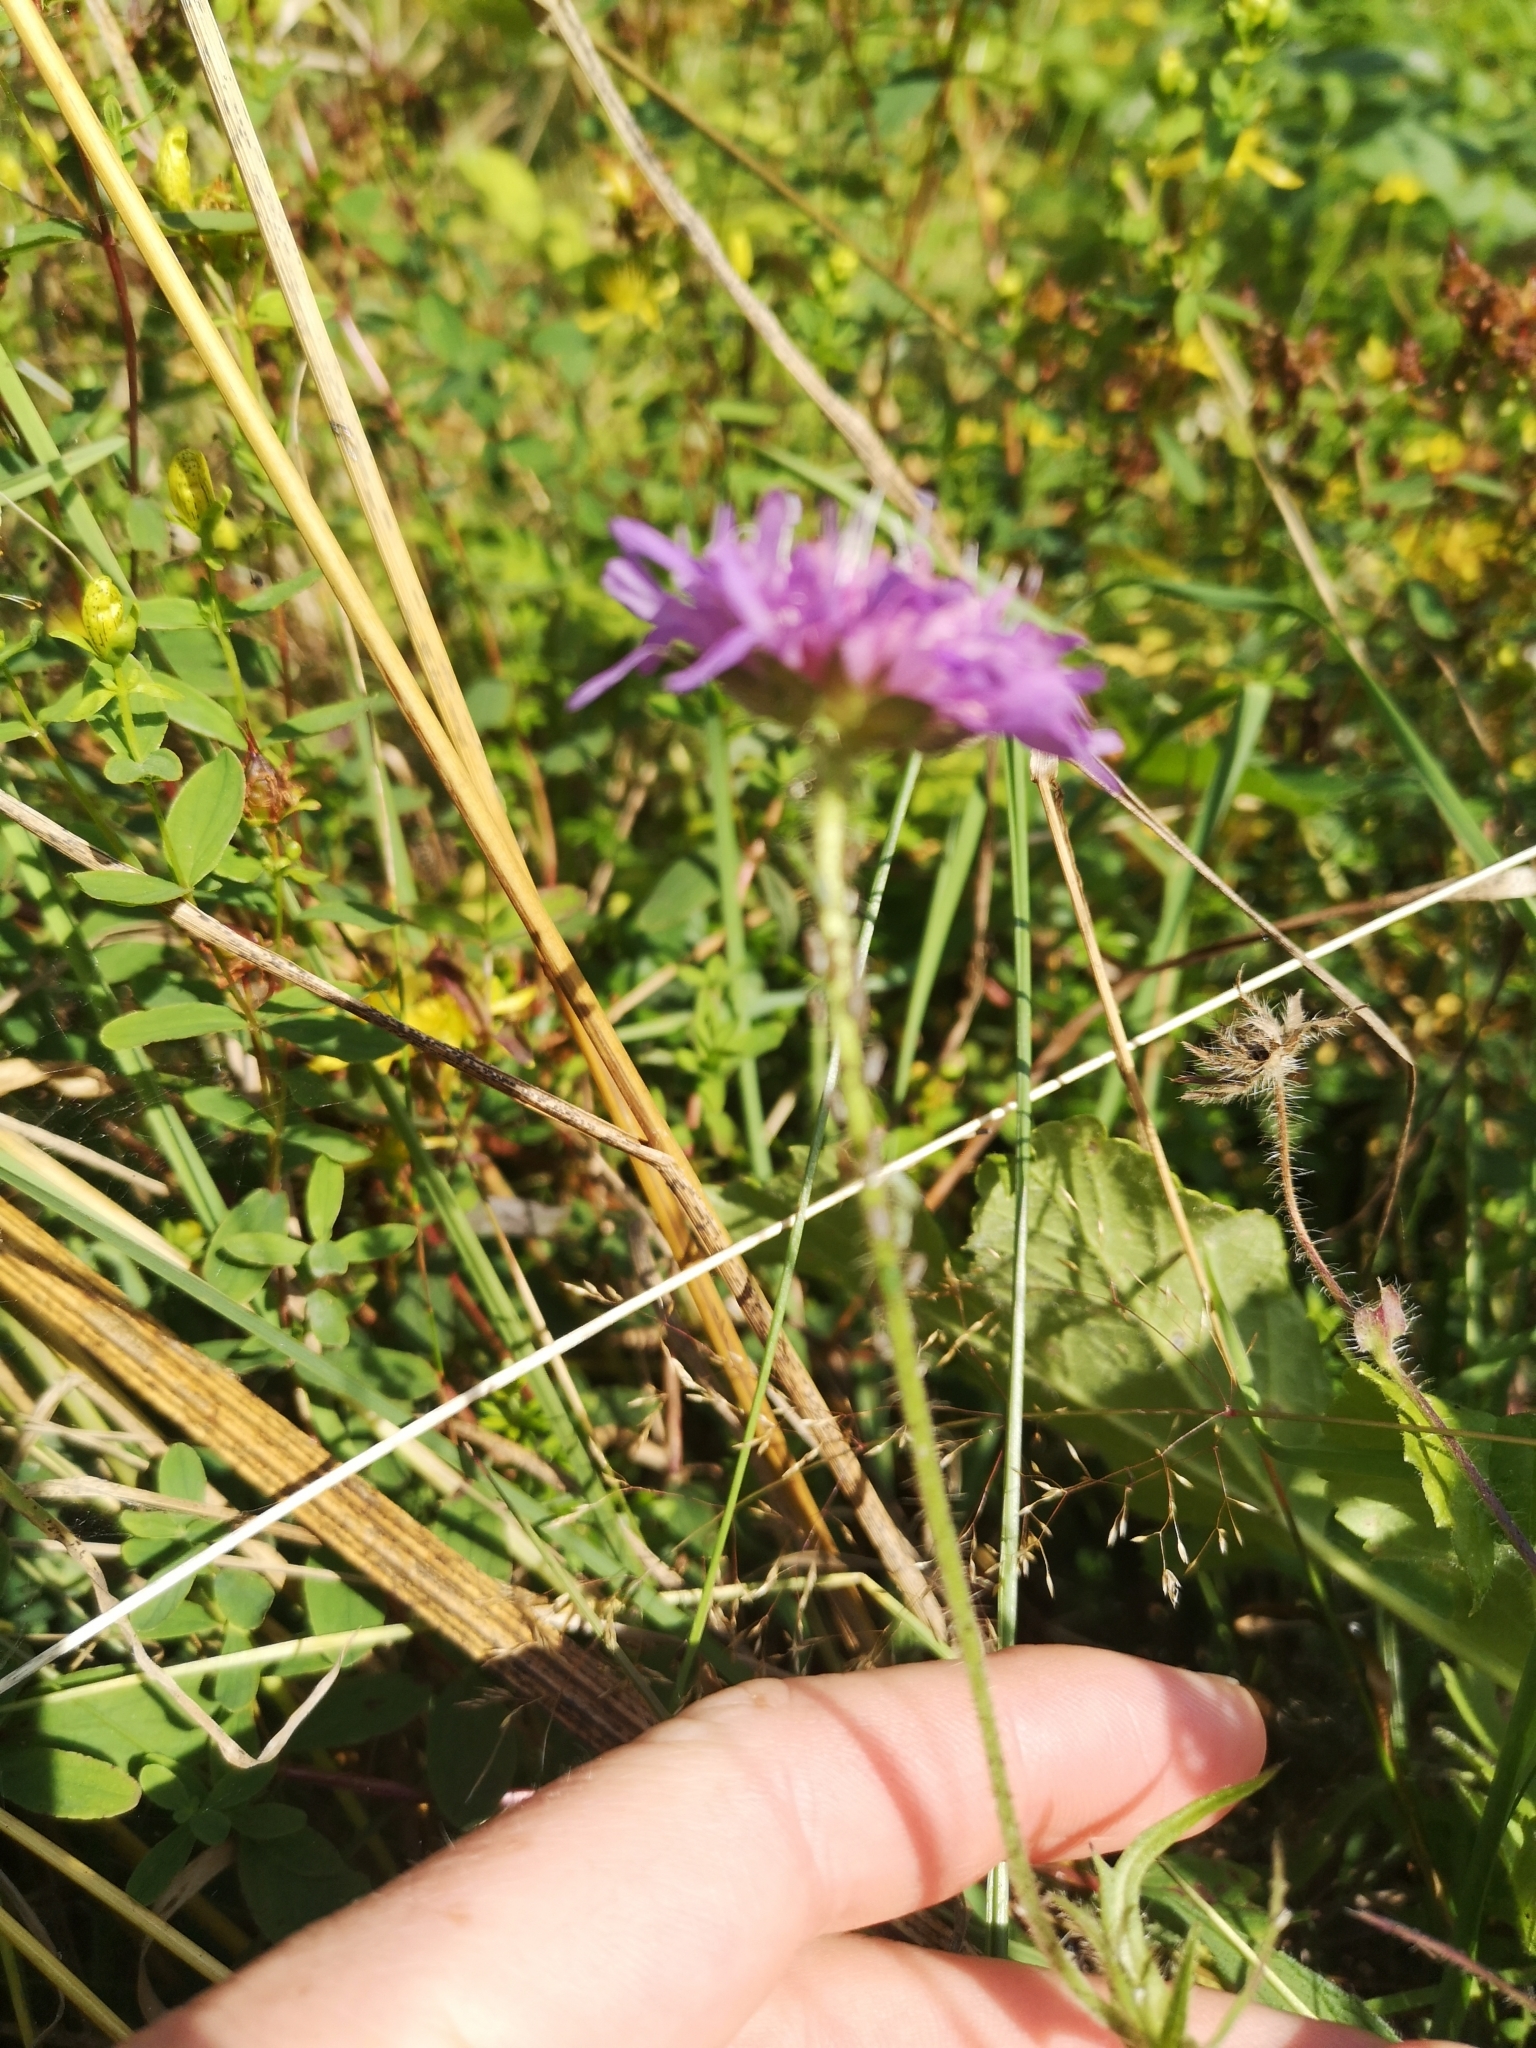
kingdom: Plantae
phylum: Tracheophyta
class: Magnoliopsida
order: Dipsacales
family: Caprifoliaceae
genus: Knautia
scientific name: Knautia arvensis
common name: Field scabiosa
